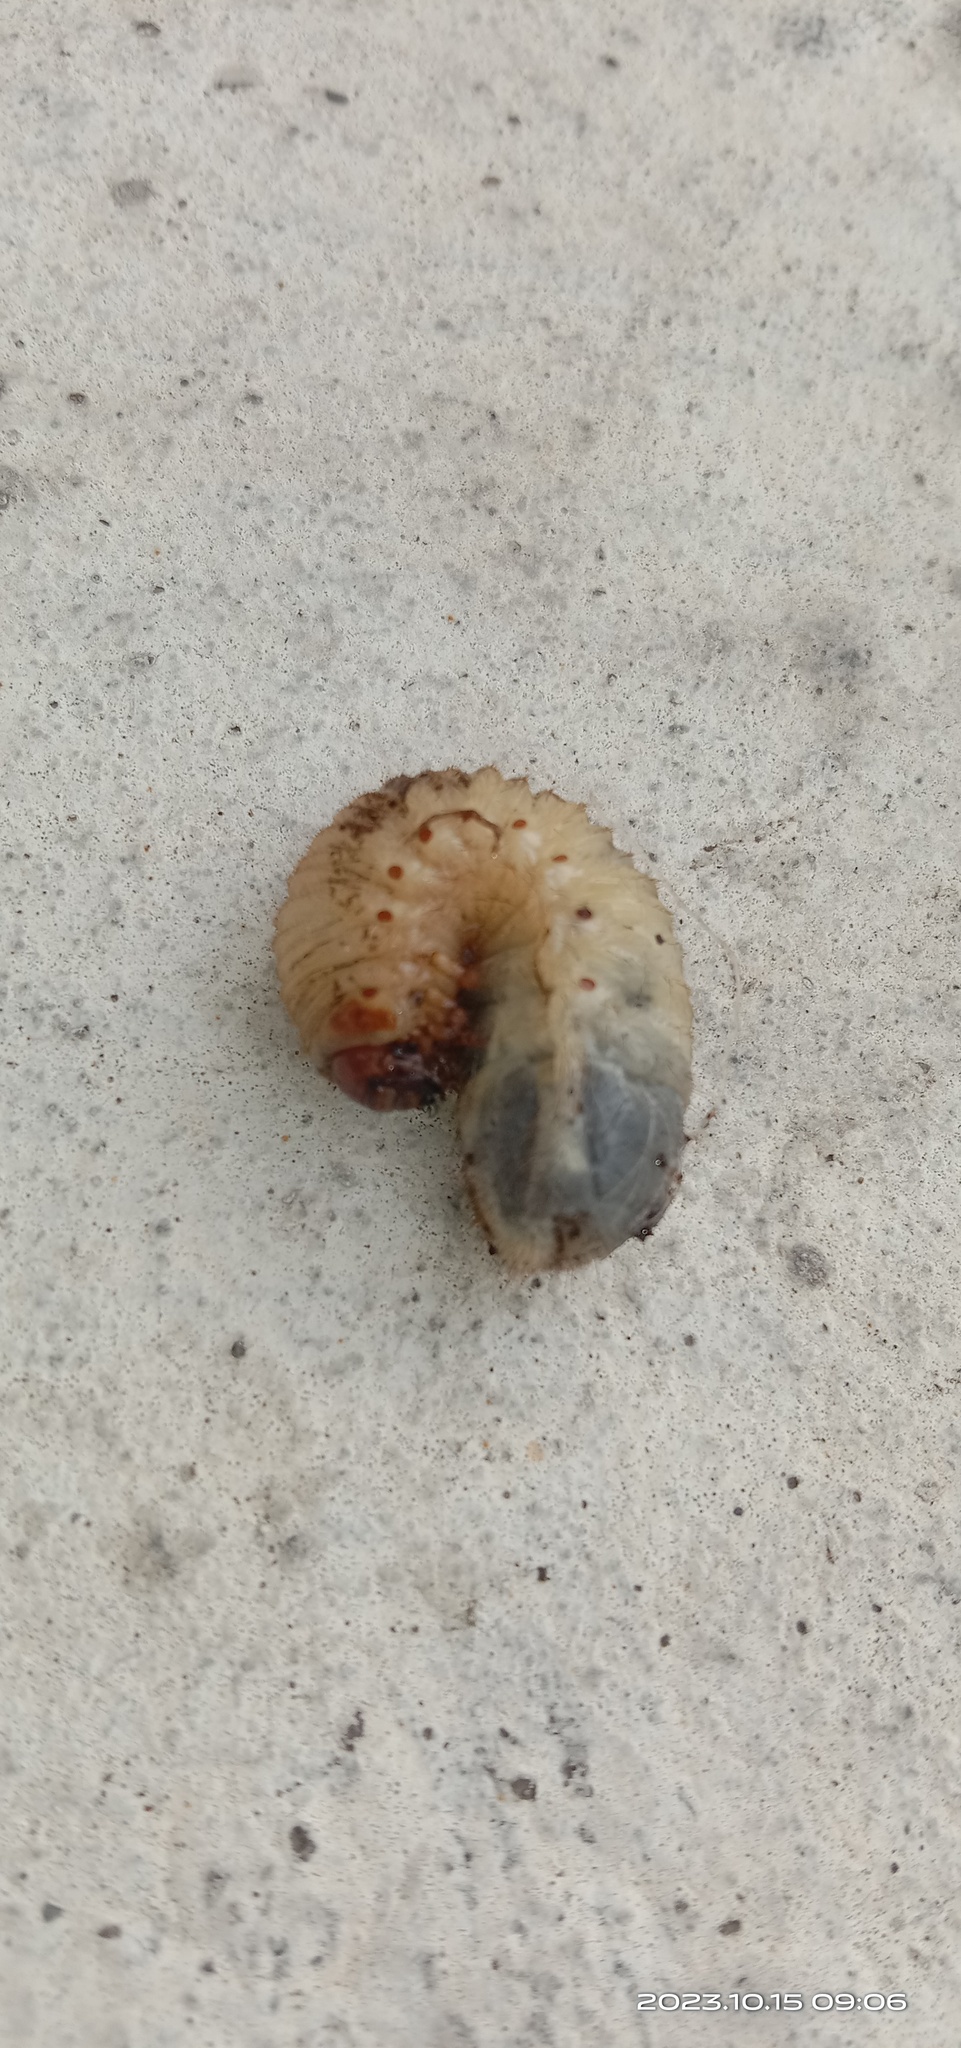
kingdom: Animalia
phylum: Arthropoda
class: Insecta
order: Coleoptera
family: Scarabaeidae
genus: Protaetia
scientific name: Protaetia orientalis
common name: Oriental flower beetle
